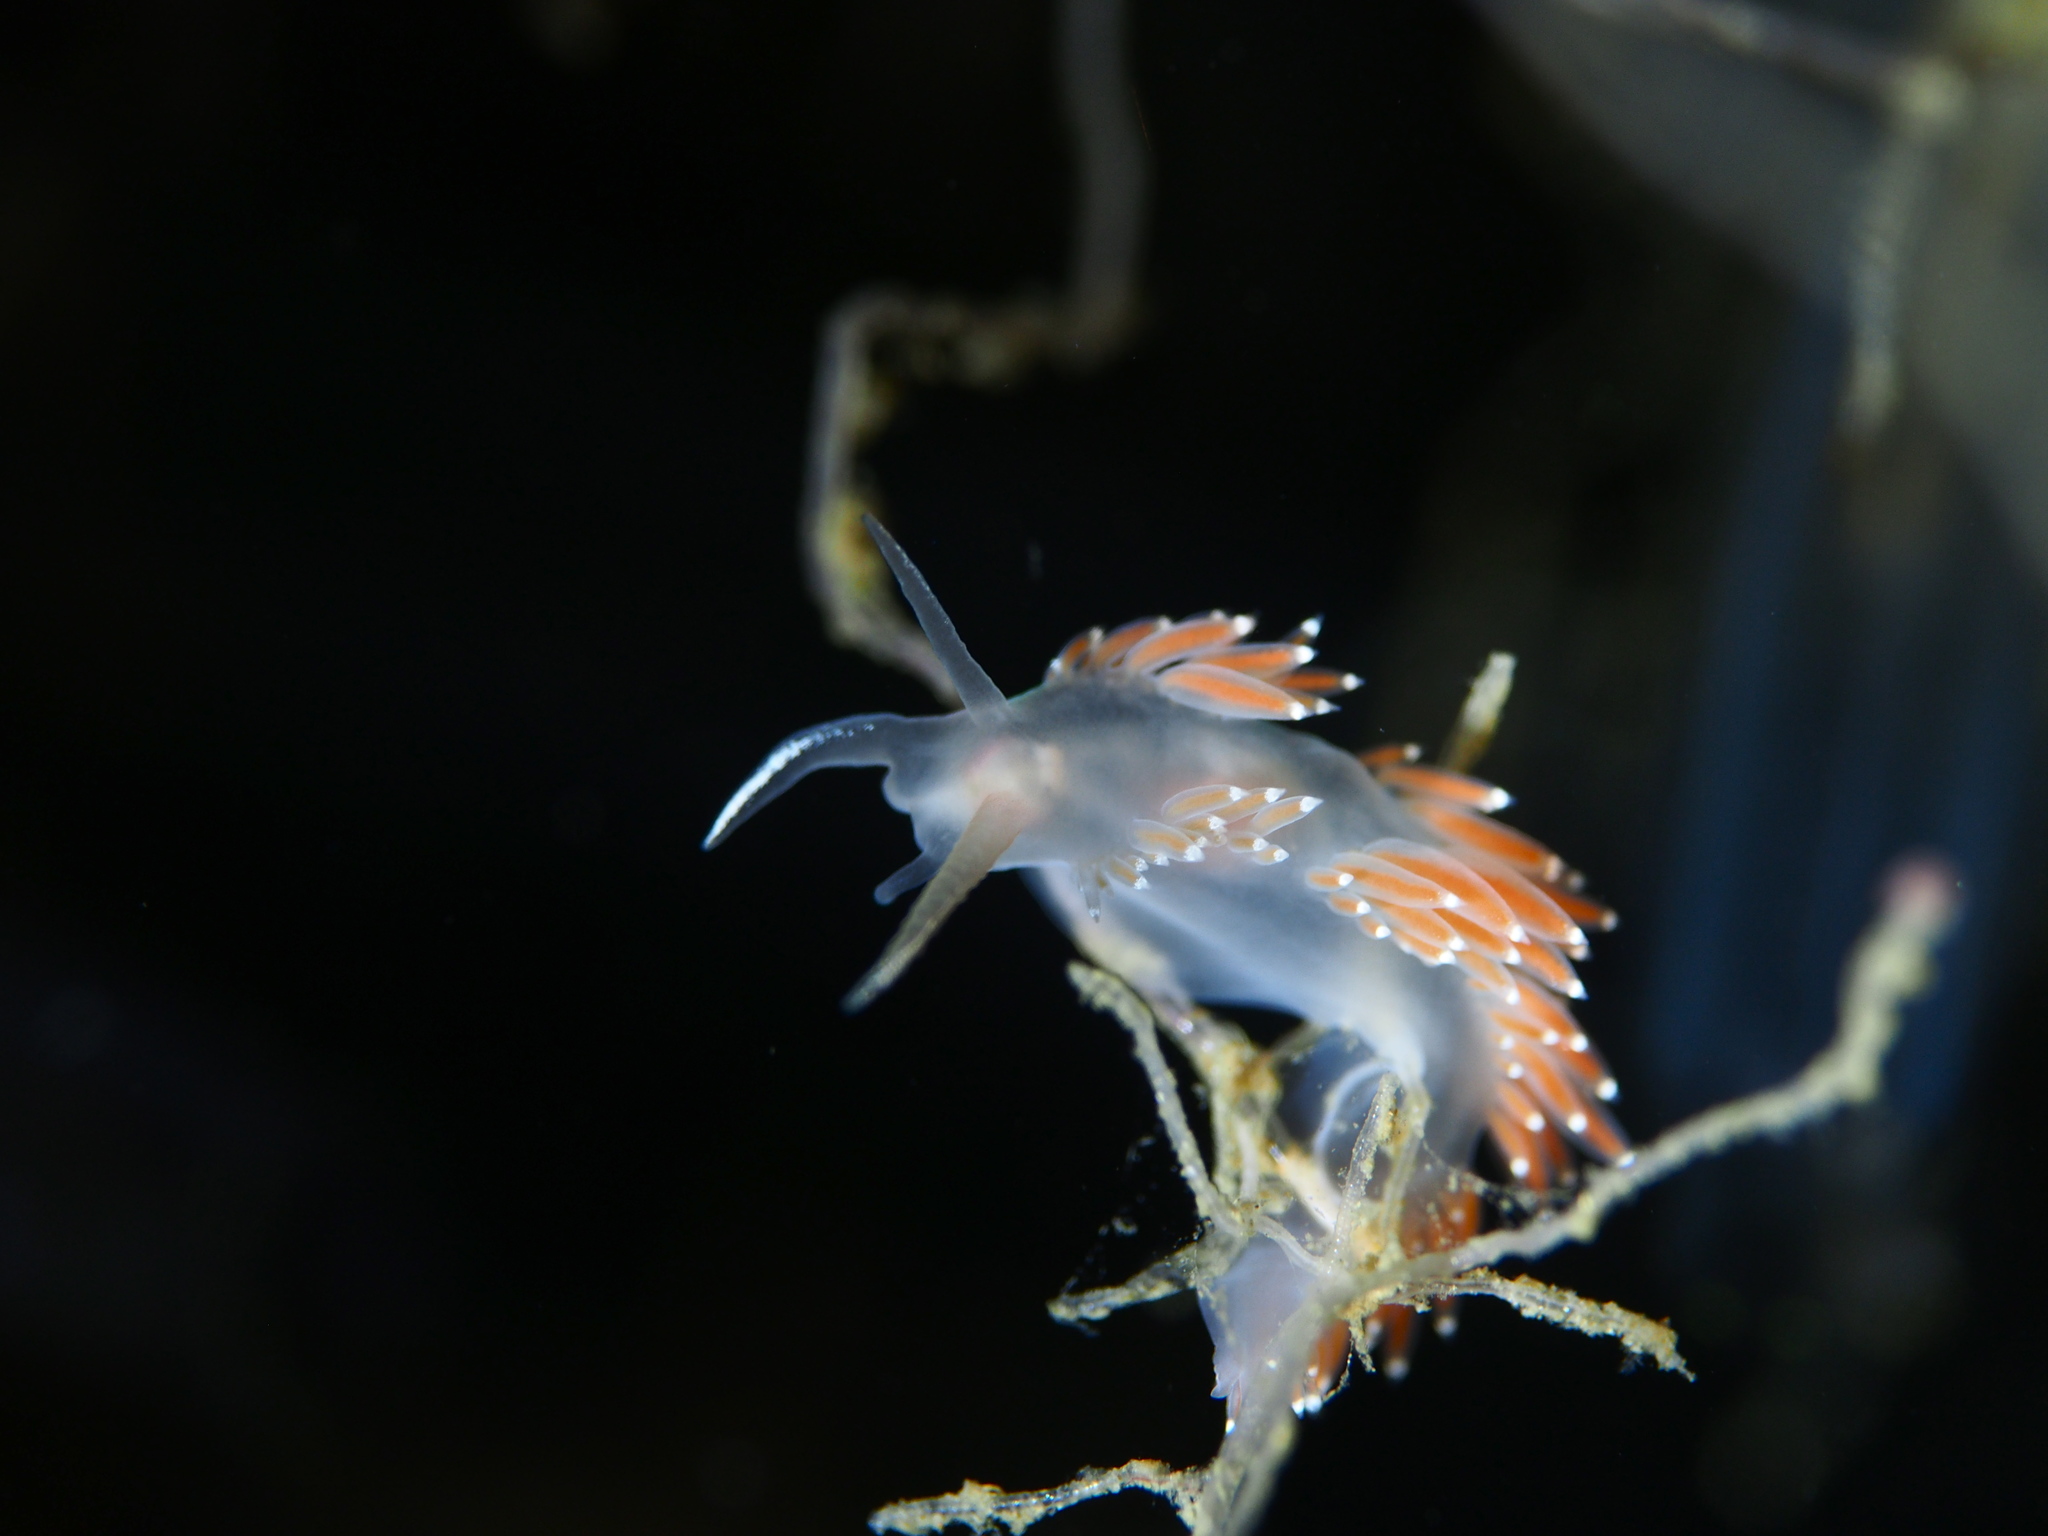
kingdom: Animalia
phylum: Mollusca
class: Gastropoda
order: Nudibranchia
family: Coryphellidae
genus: Coryphella
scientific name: Coryphella verrucosa
